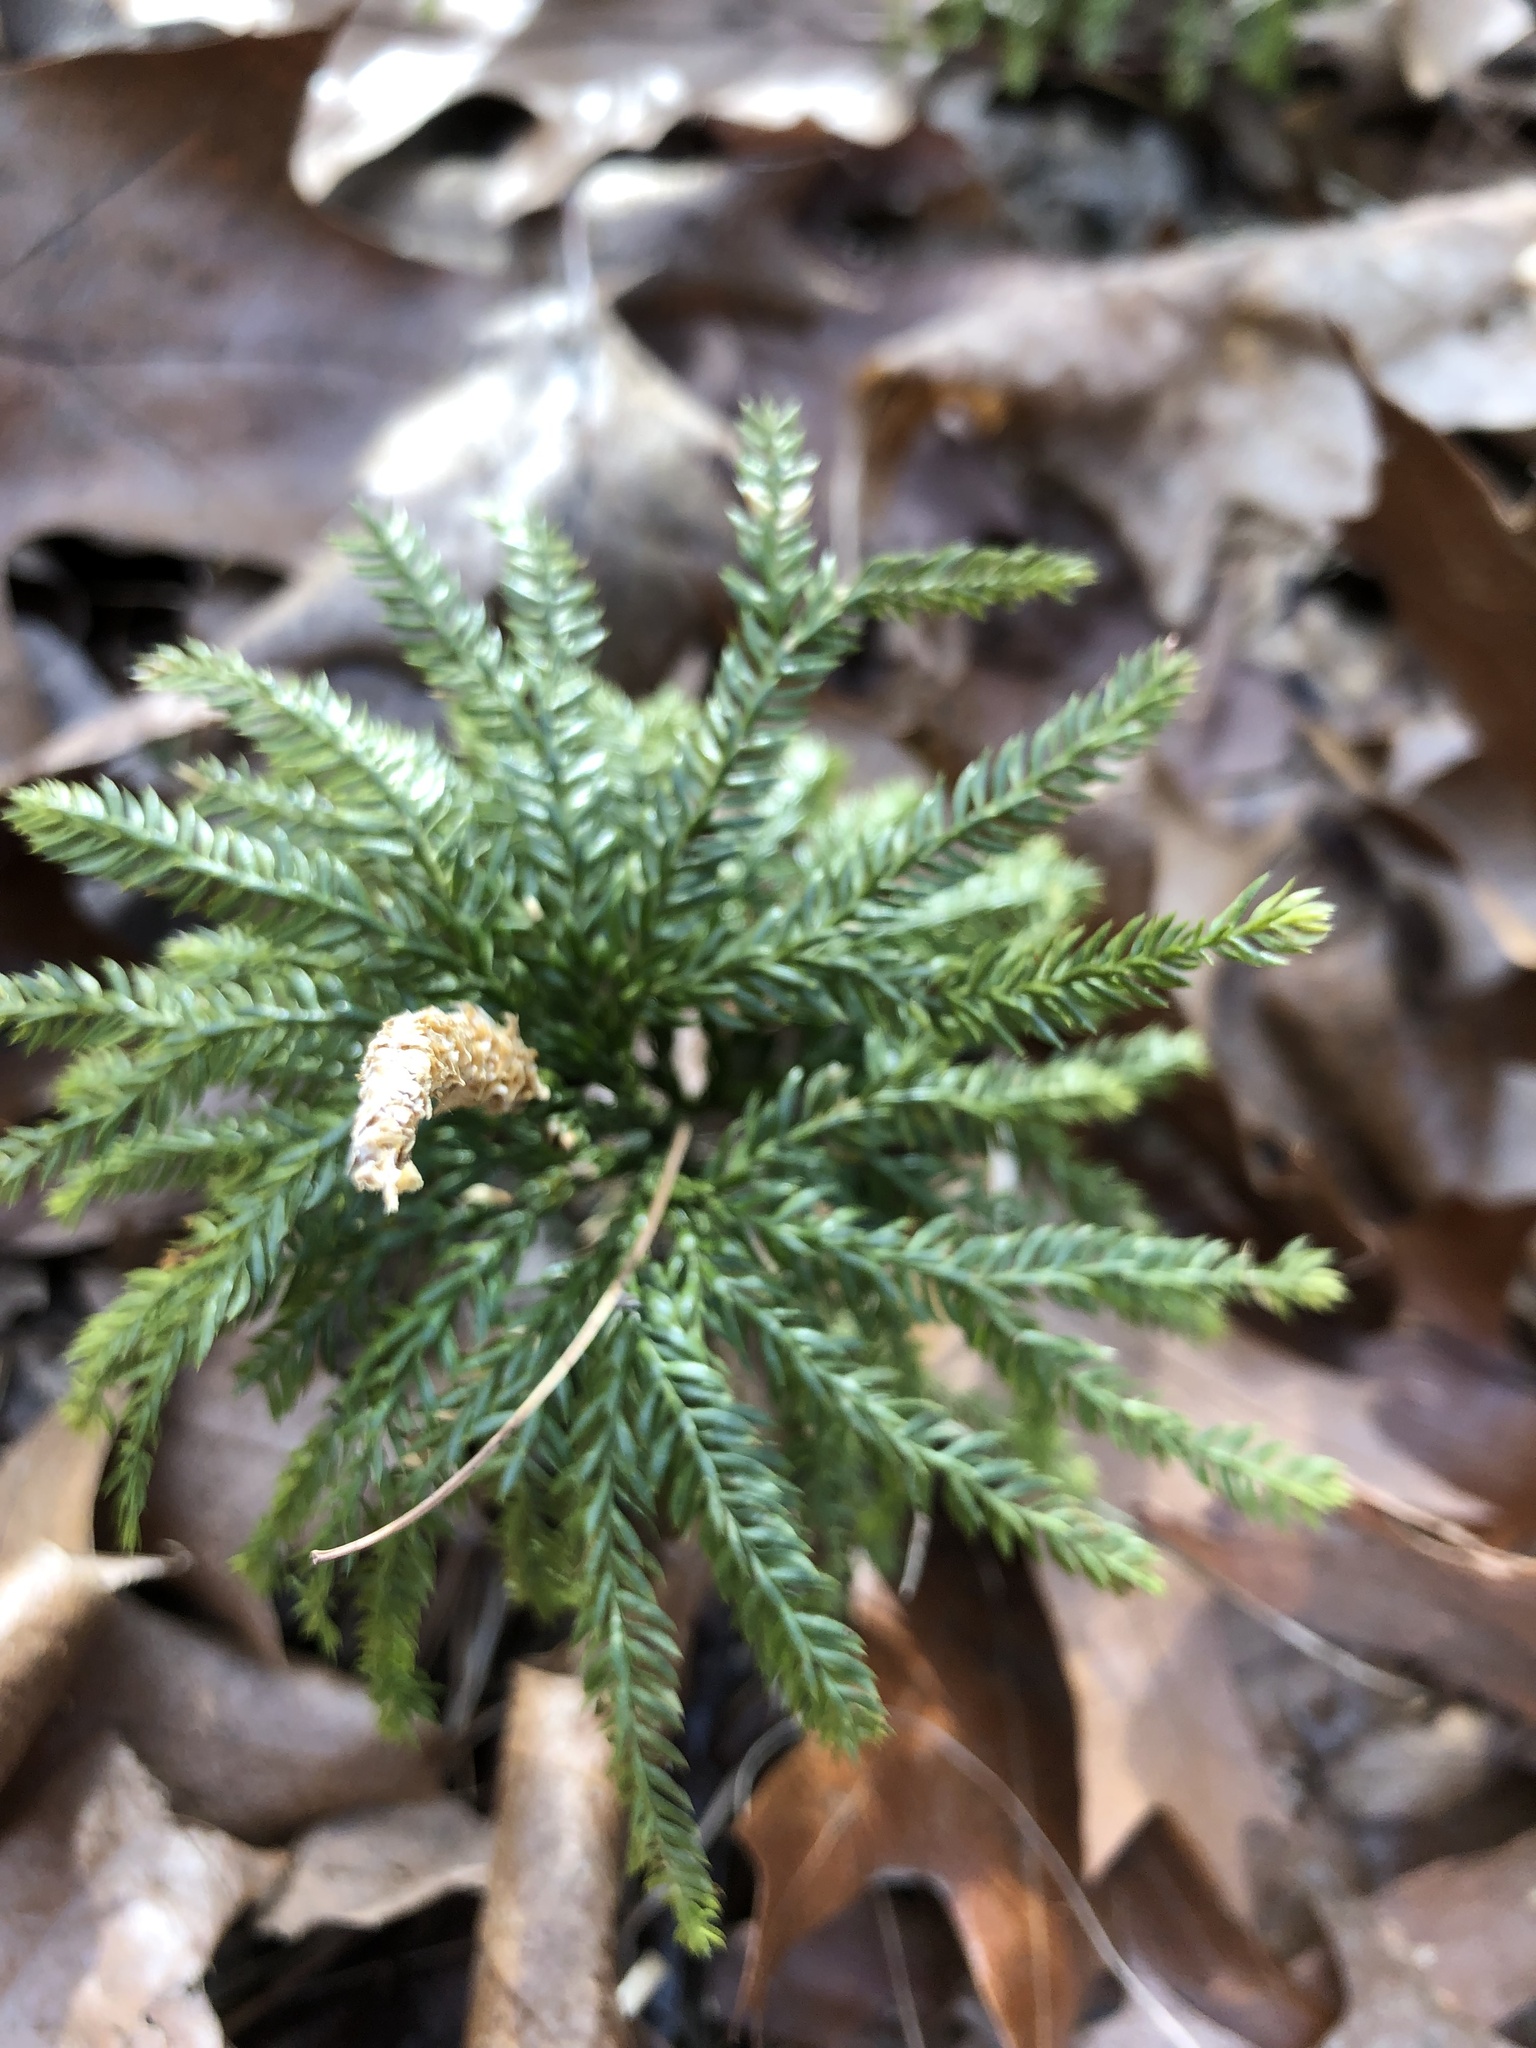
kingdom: Plantae
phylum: Tracheophyta
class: Lycopodiopsida
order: Lycopodiales
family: Lycopodiaceae
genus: Dendrolycopodium
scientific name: Dendrolycopodium obscurum
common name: Common ground-pine
